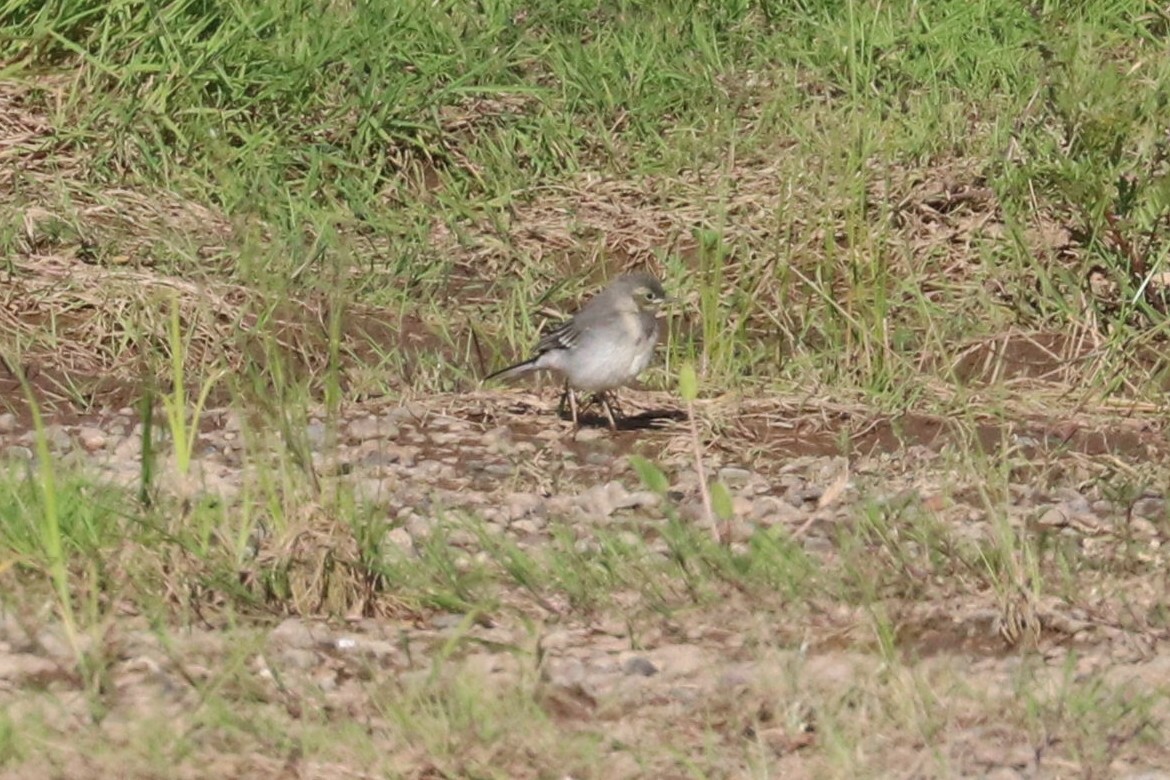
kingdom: Animalia
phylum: Chordata
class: Aves
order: Passeriformes
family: Motacillidae
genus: Motacilla
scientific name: Motacilla alba
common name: White wagtail
